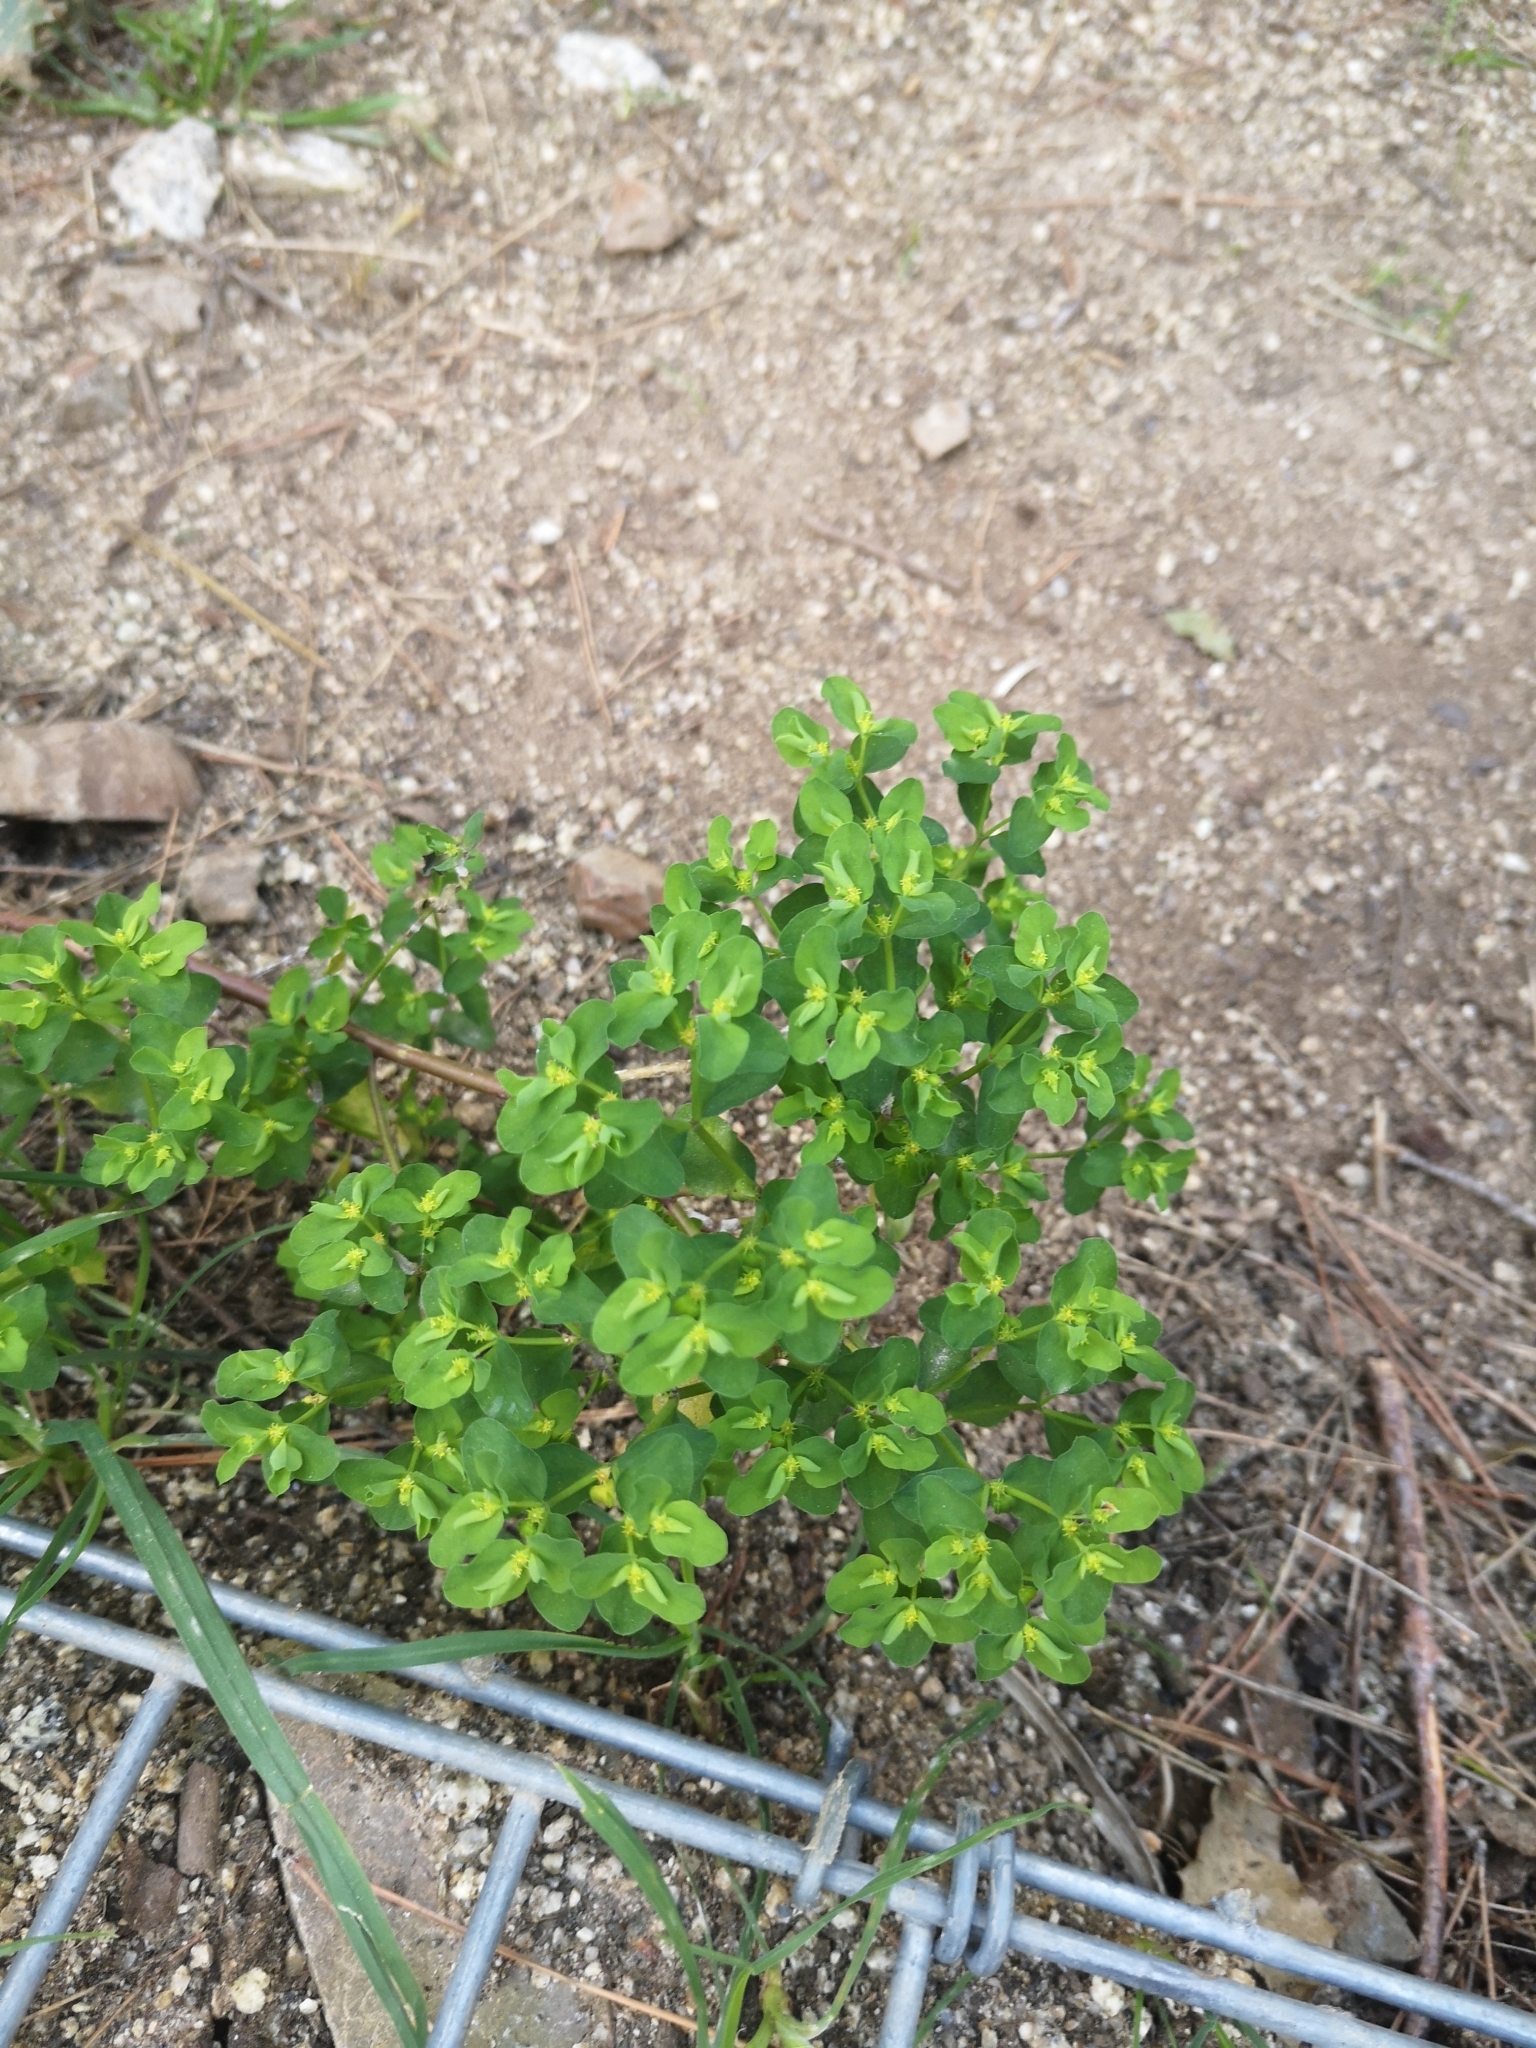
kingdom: Plantae
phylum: Tracheophyta
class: Magnoliopsida
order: Malpighiales
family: Euphorbiaceae
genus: Euphorbia
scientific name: Euphorbia peplus
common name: Petty spurge
